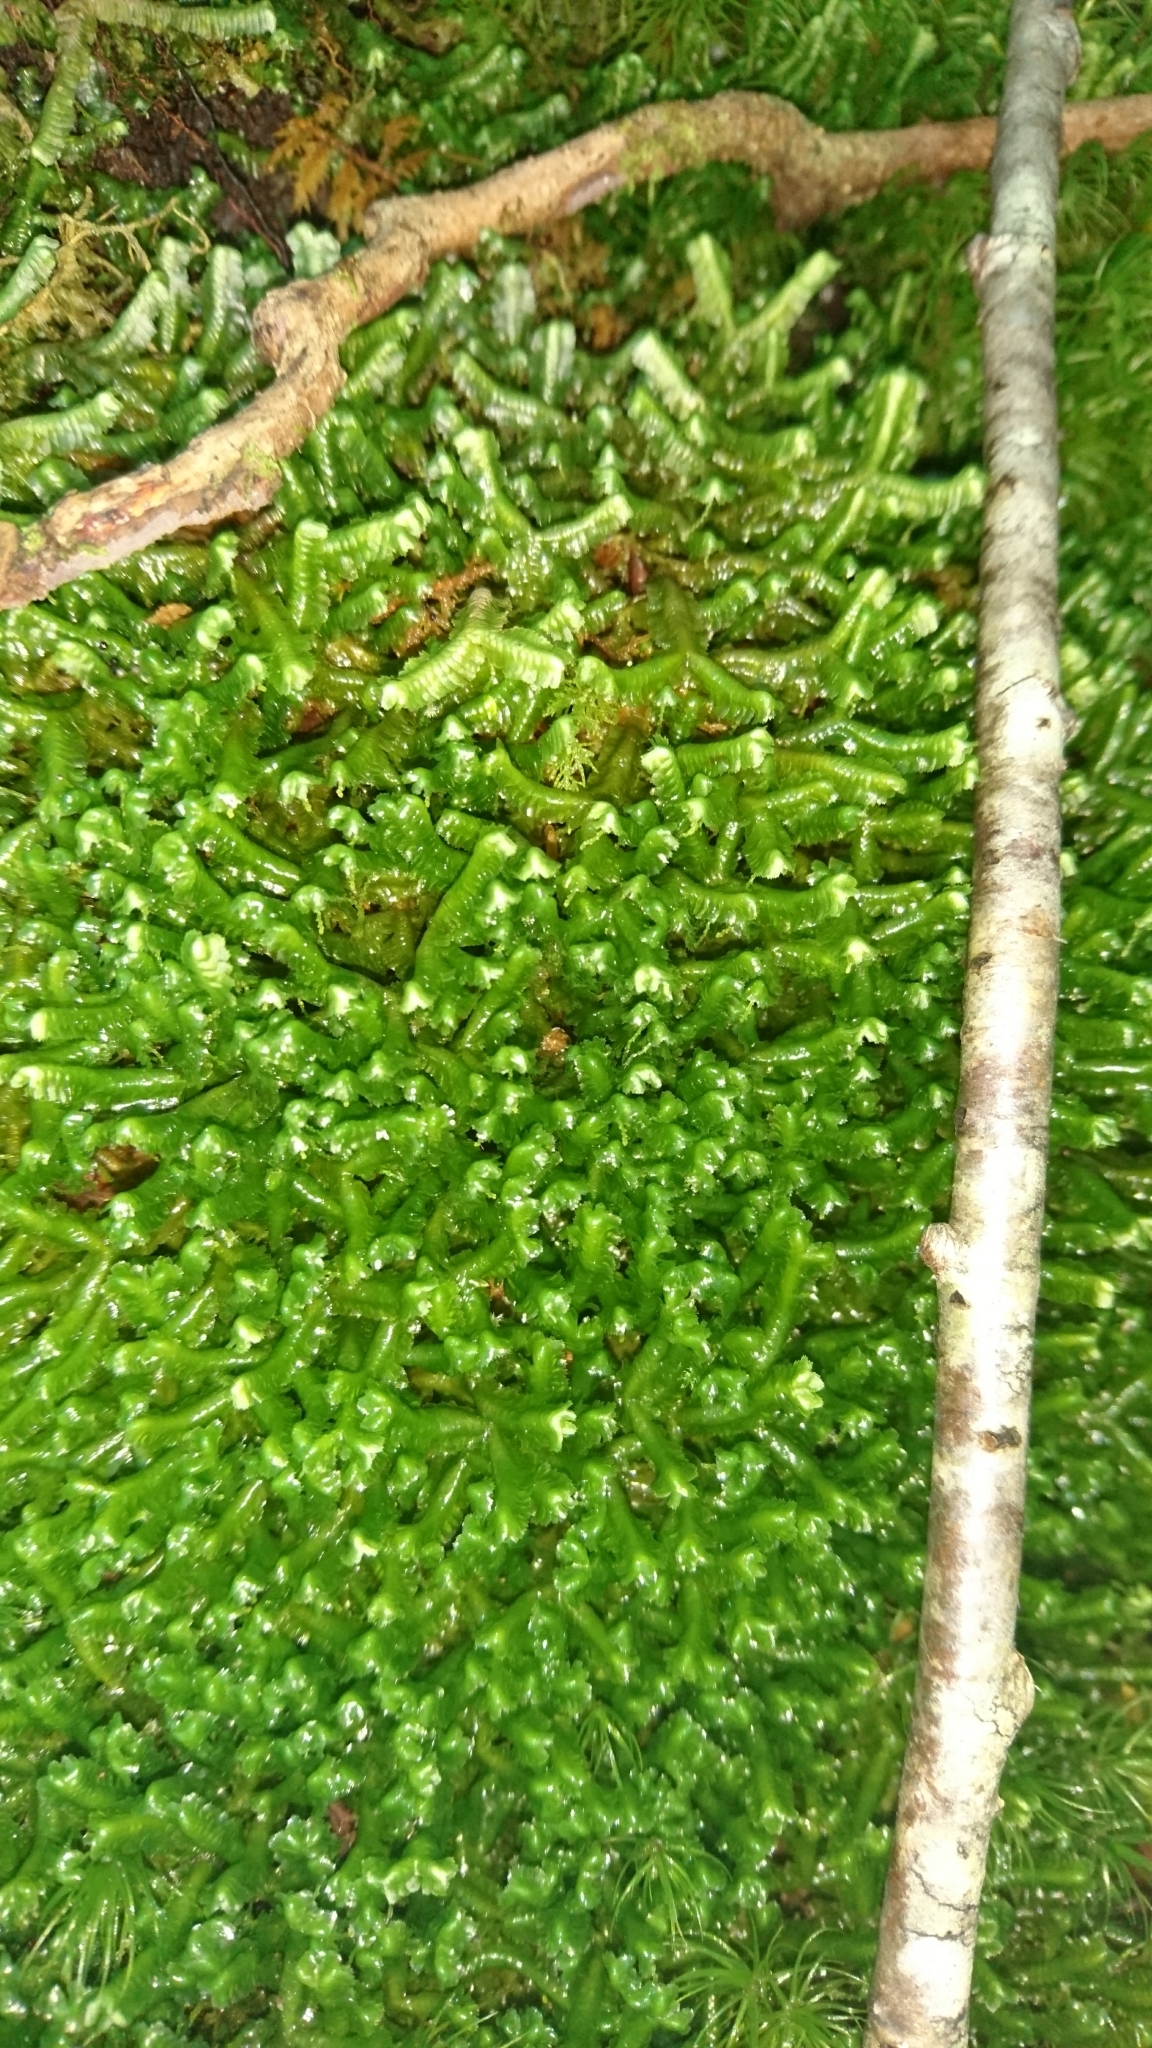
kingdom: Plantae
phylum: Marchantiophyta
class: Jungermanniopsida
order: Jungermanniales
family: Lepidoziaceae
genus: Bazzania
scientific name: Bazzania trilobata
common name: Three-lobed whipwort
